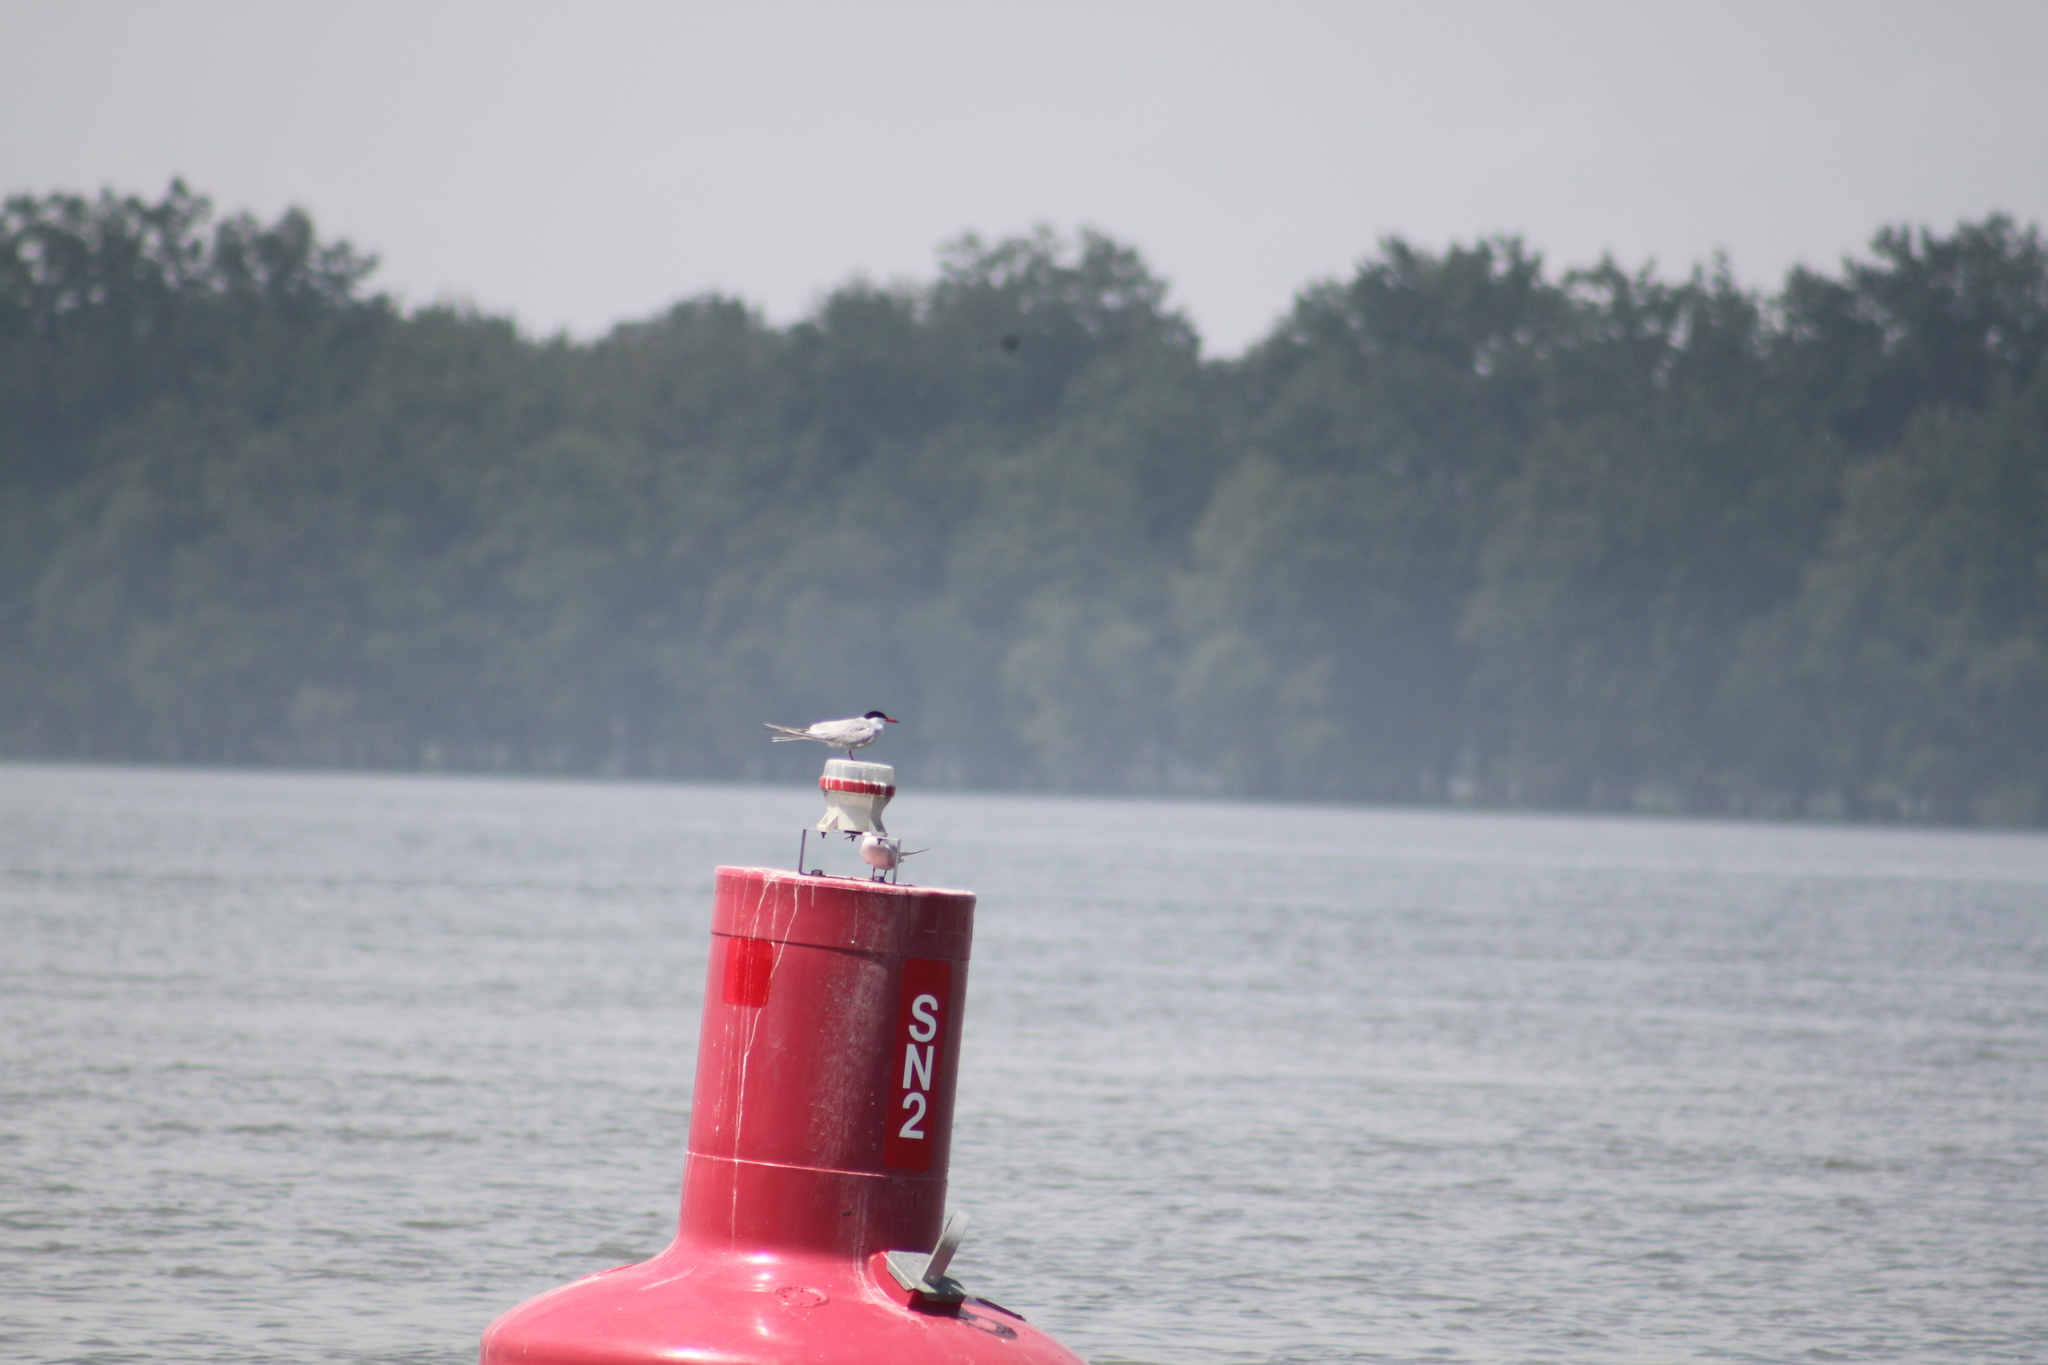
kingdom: Animalia
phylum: Chordata
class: Aves
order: Charadriiformes
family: Laridae
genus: Sterna
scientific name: Sterna hirundo
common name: Common tern
